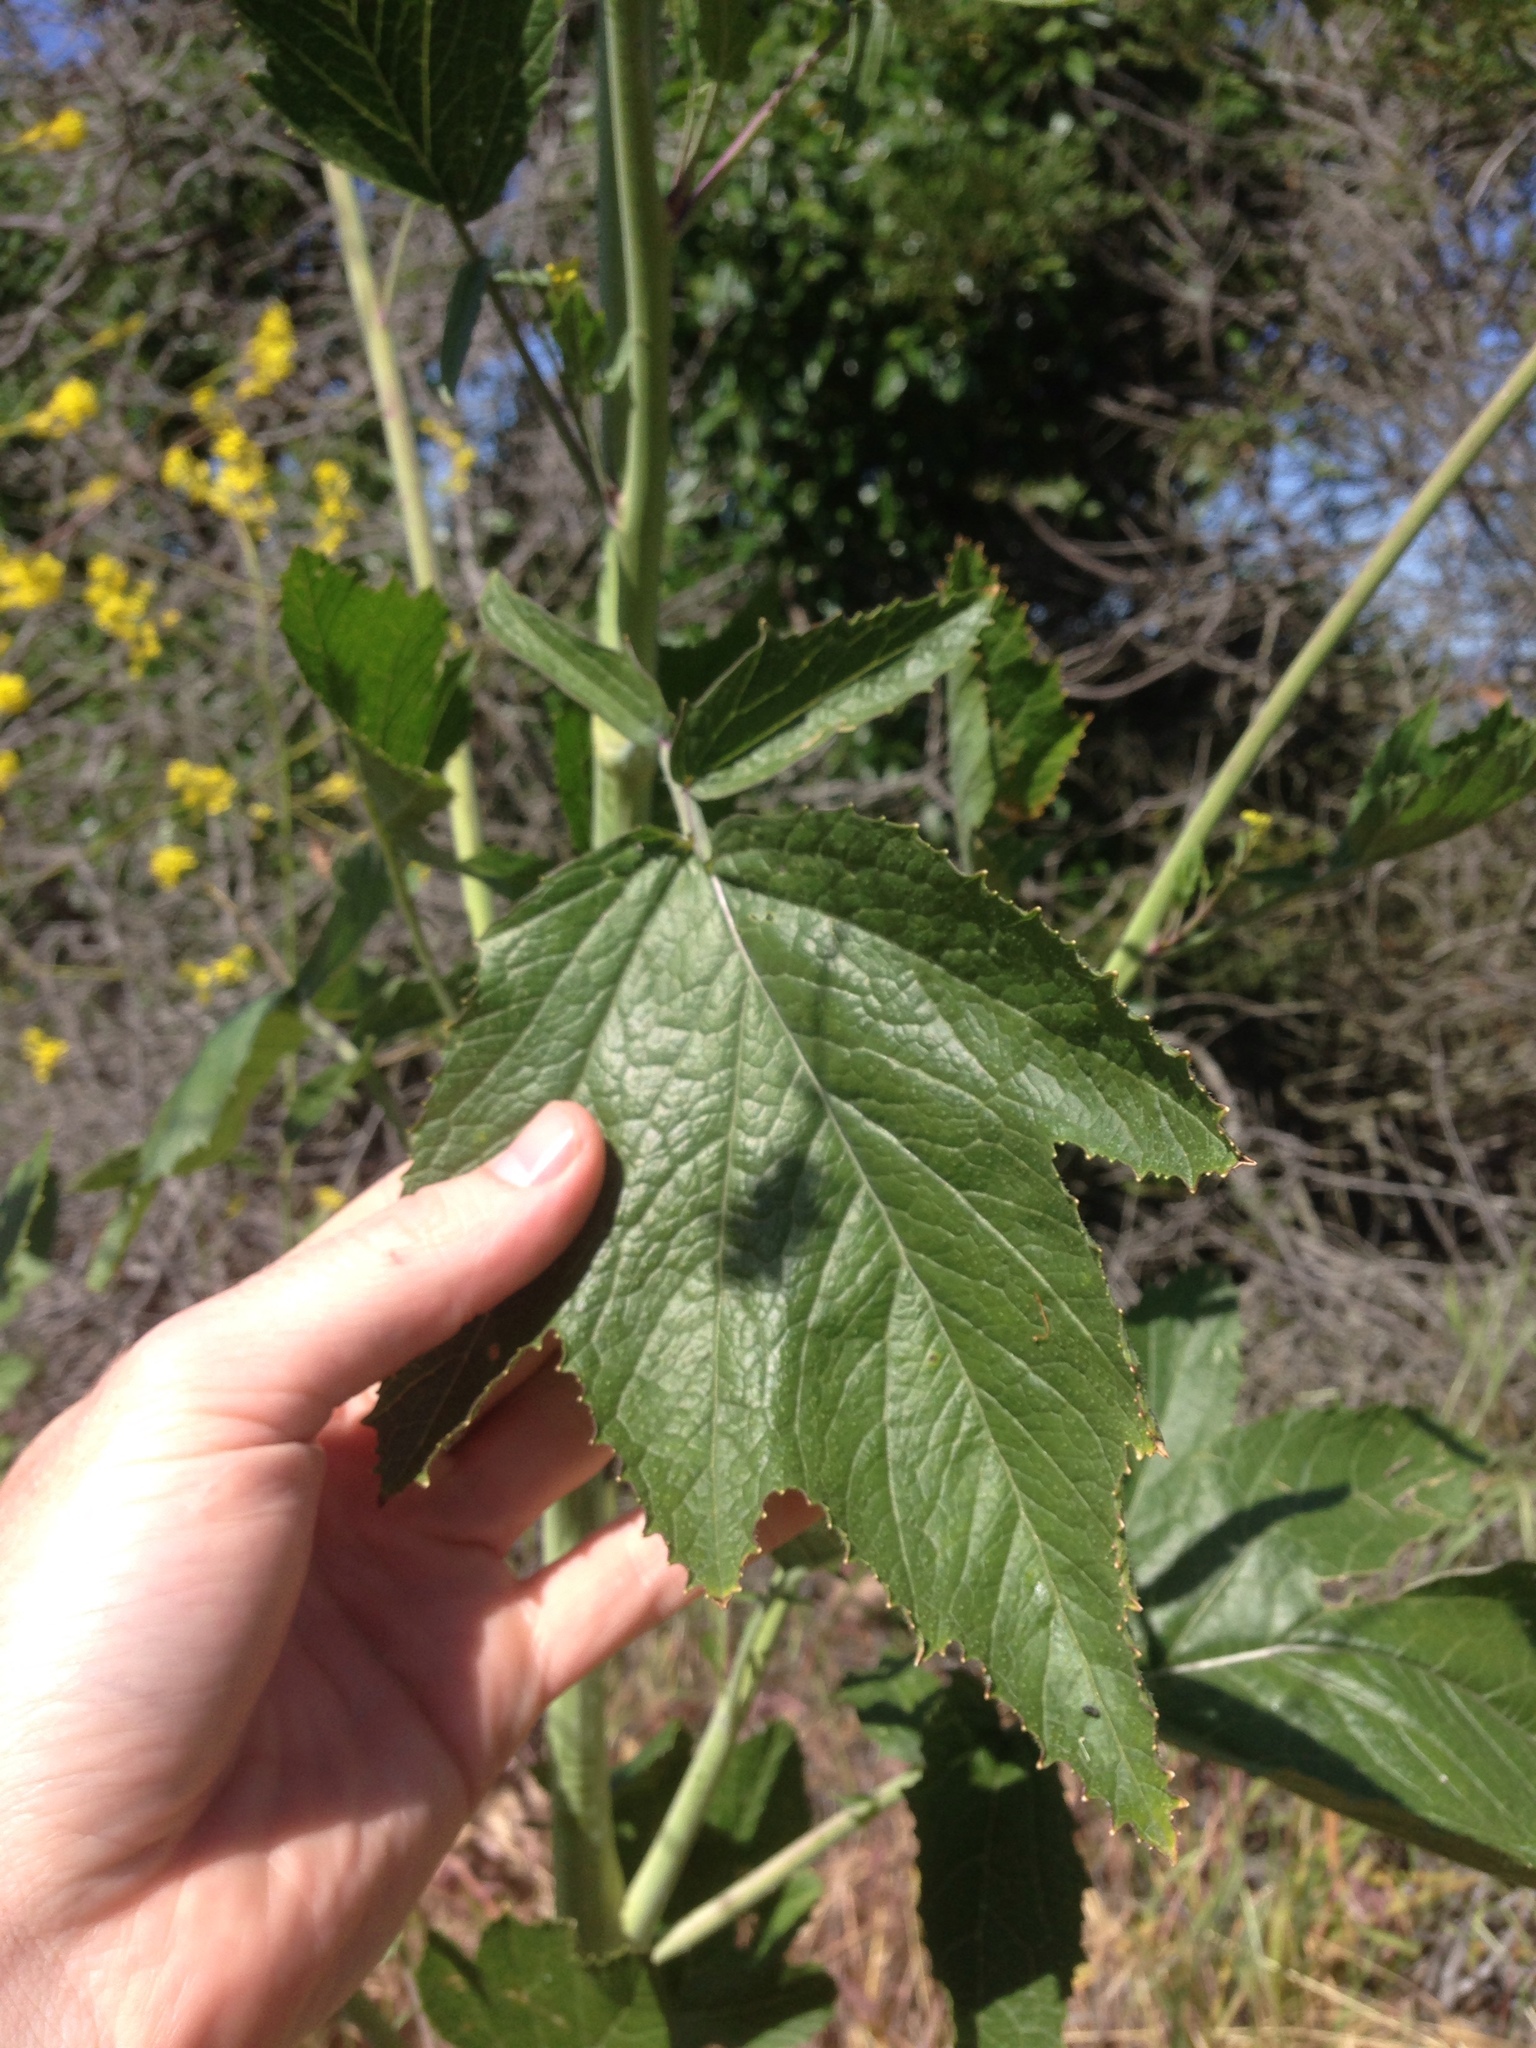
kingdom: Plantae
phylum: Tracheophyta
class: Magnoliopsida
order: Brassicales
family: Brassicaceae
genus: Brassica
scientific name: Brassica nigra
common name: Black mustard
